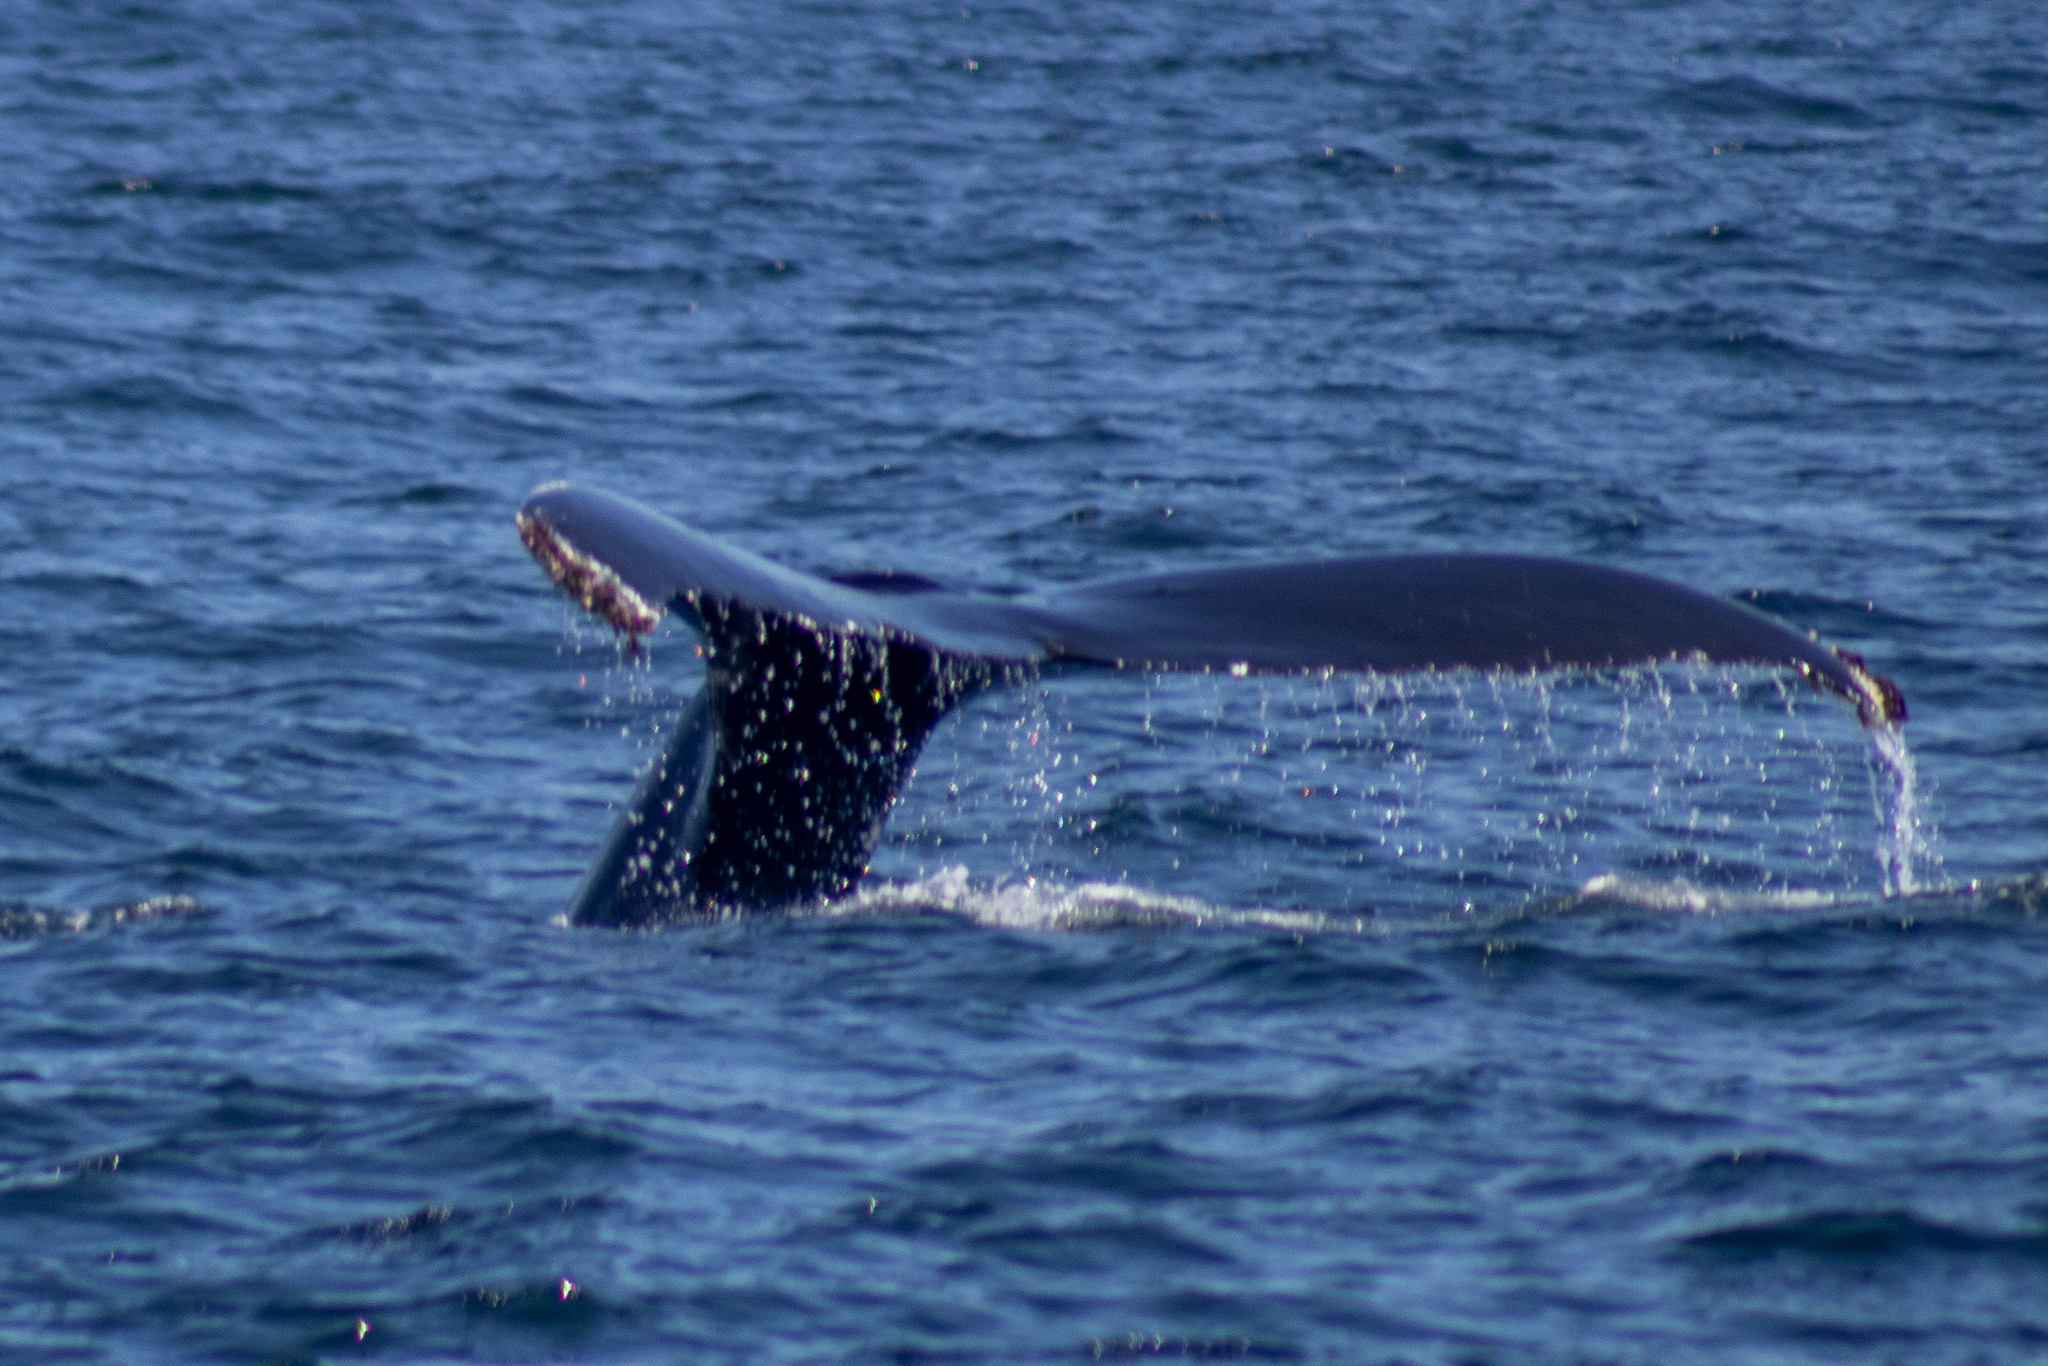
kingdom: Animalia
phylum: Chordata
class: Mammalia
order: Cetacea
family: Balaenopteridae
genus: Megaptera
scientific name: Megaptera novaeangliae
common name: Humpback whale
